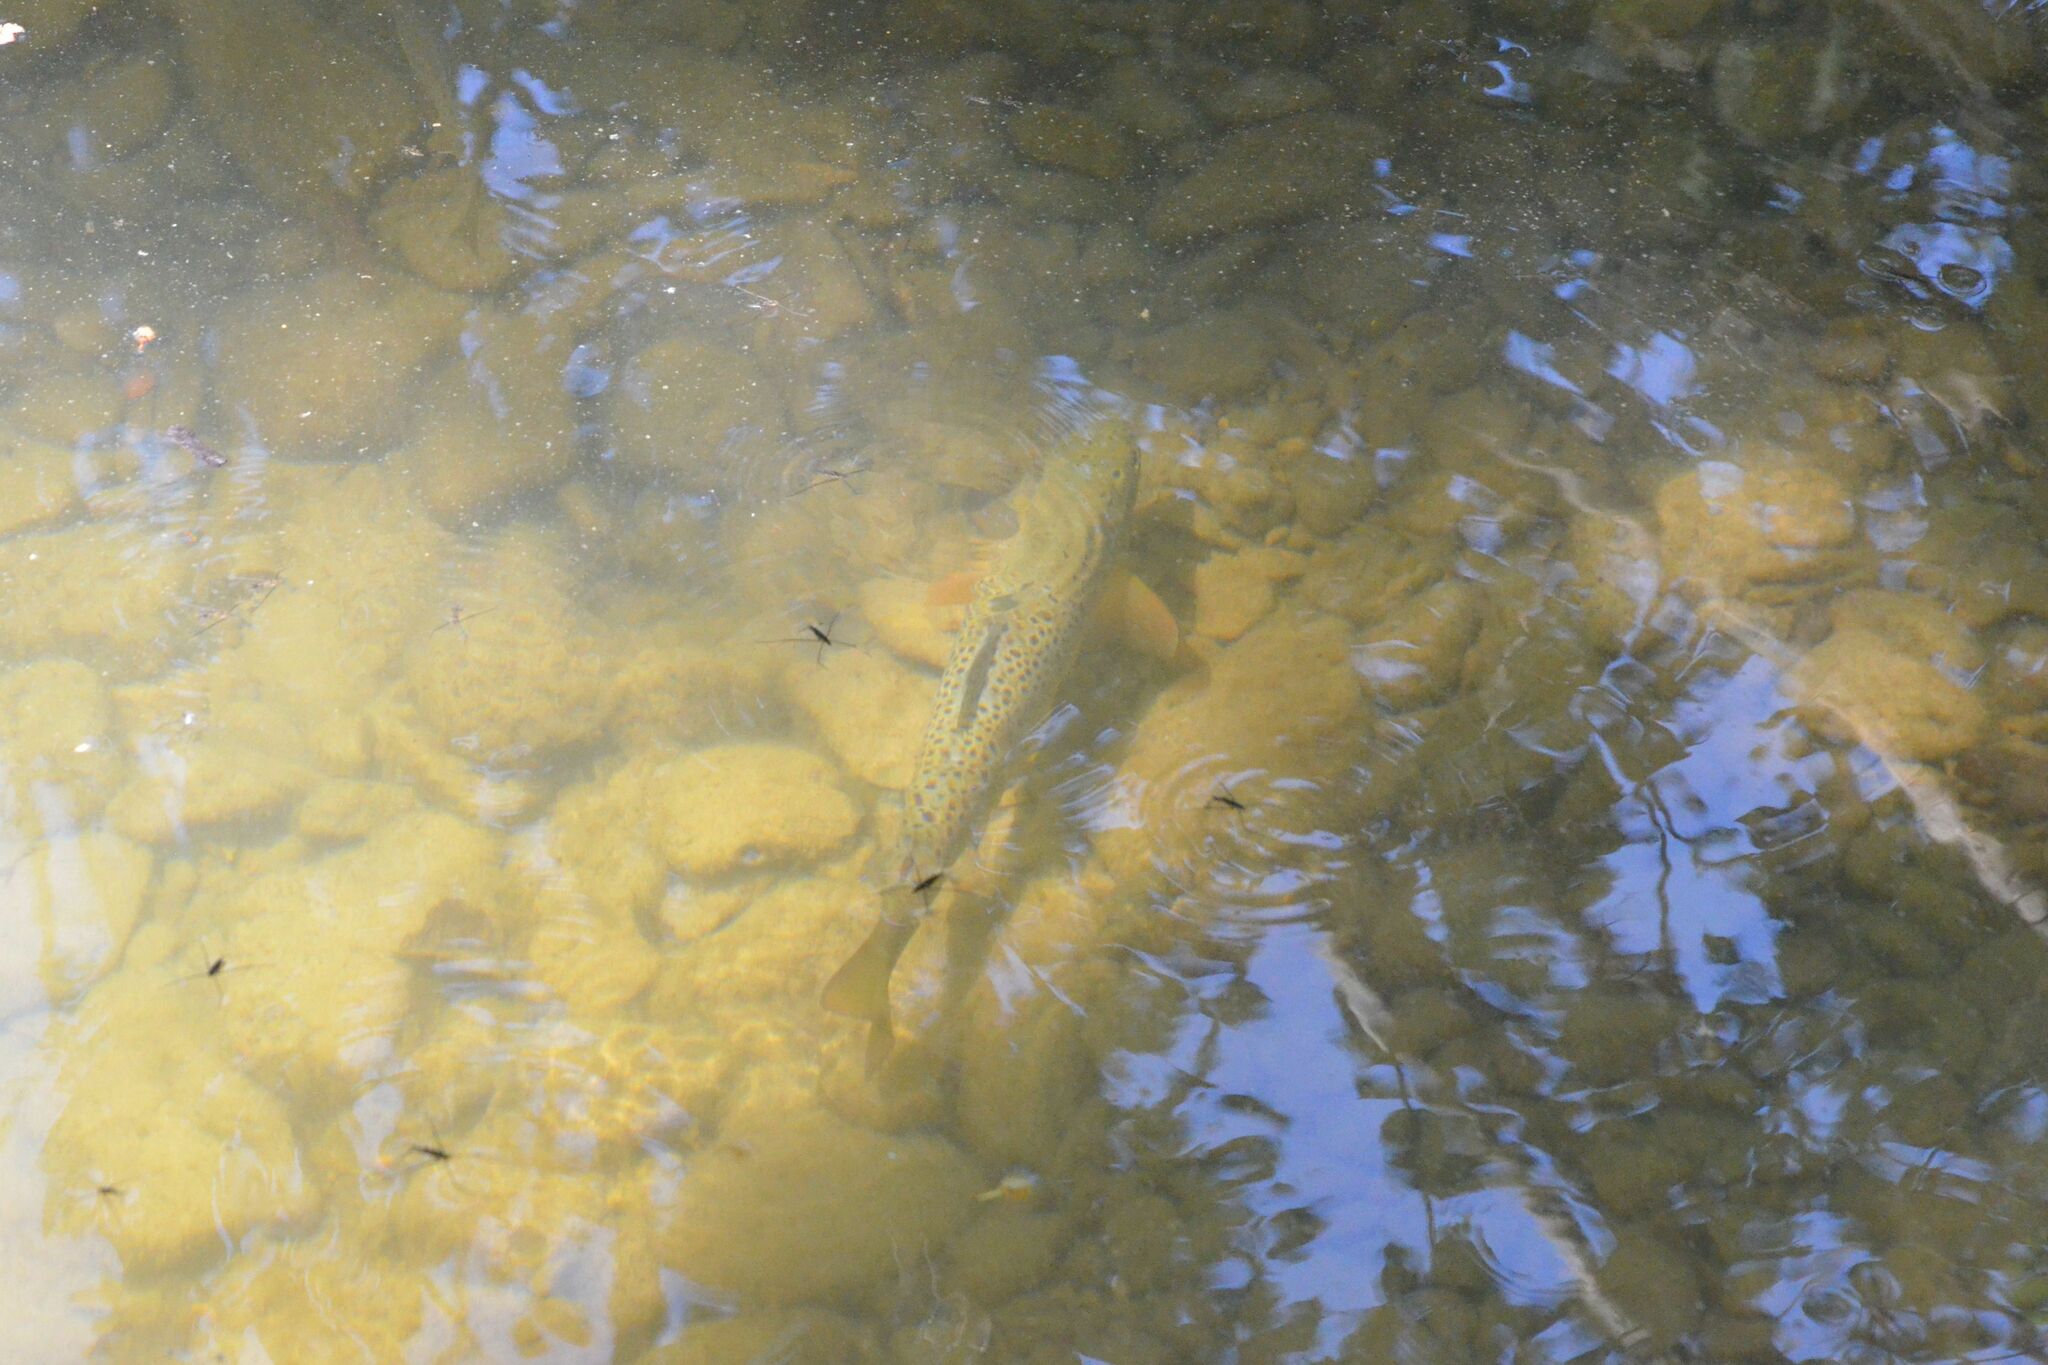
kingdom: Animalia
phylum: Chordata
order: Salmoniformes
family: Salmonidae
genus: Salmo
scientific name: Salmo trutta
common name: Brown trout
